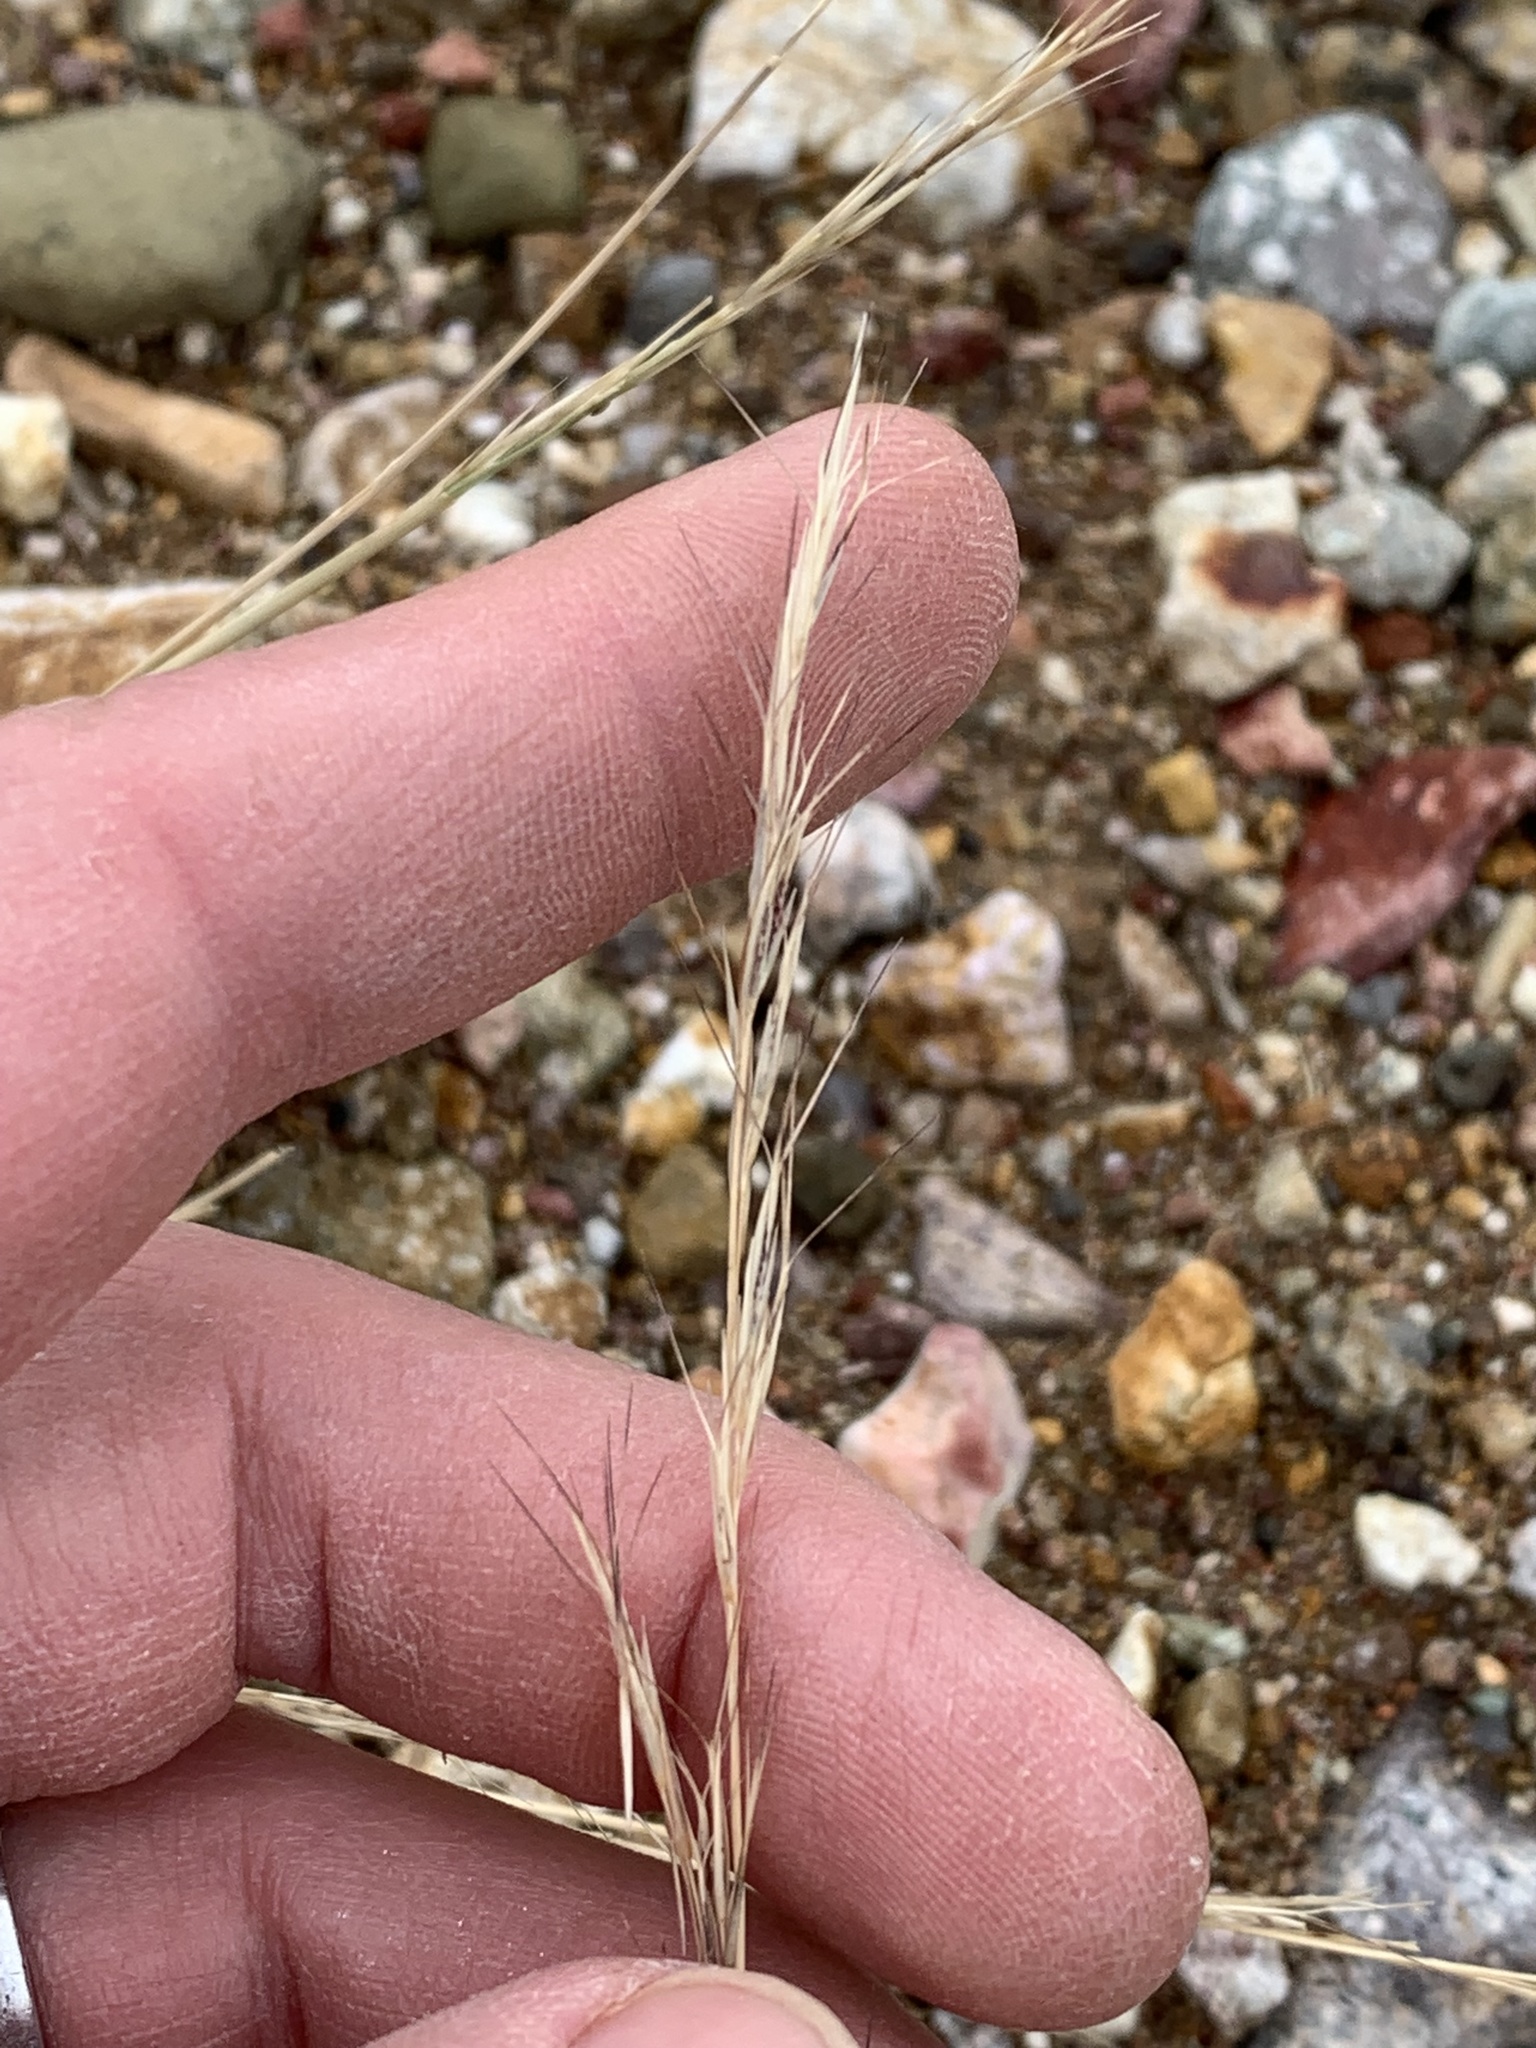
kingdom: Plantae
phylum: Tracheophyta
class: Liliopsida
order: Poales
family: Poaceae
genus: Aristida
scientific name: Aristida adscensionis
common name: Sixweeks threeawn
